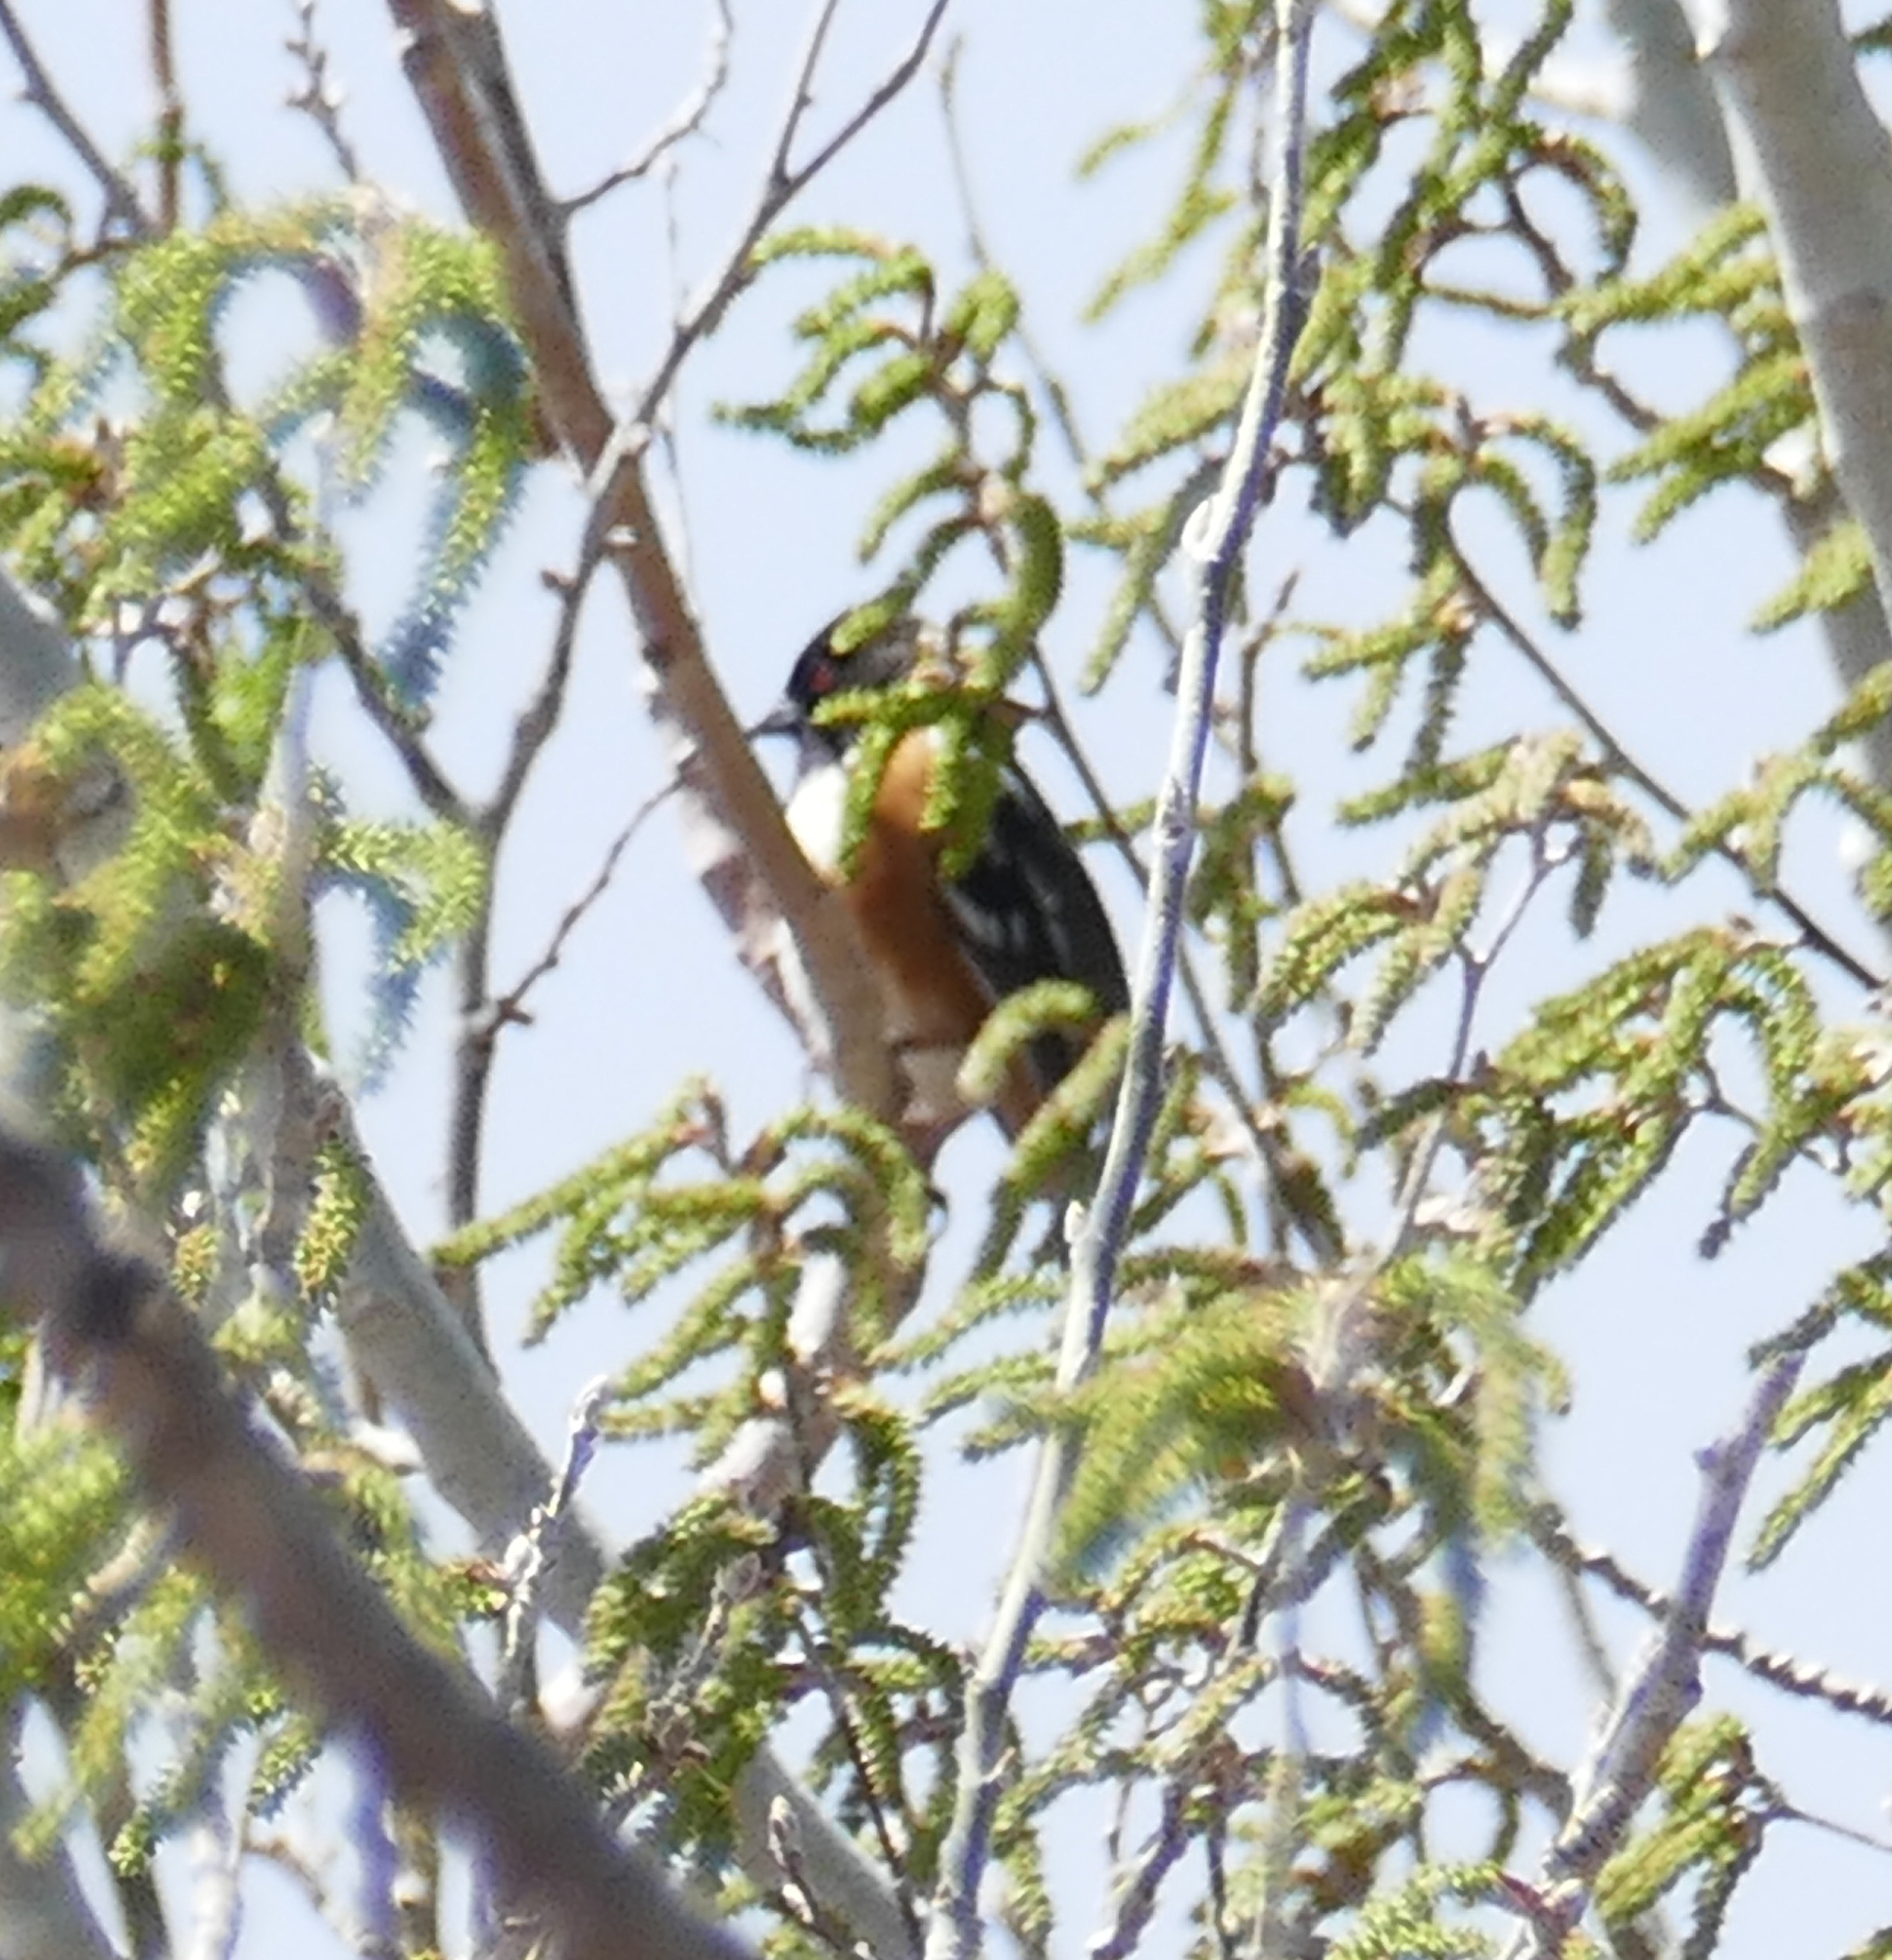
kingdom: Animalia
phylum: Chordata
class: Aves
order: Passeriformes
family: Passerellidae
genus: Pipilo
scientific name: Pipilo maculatus
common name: Spotted towhee
